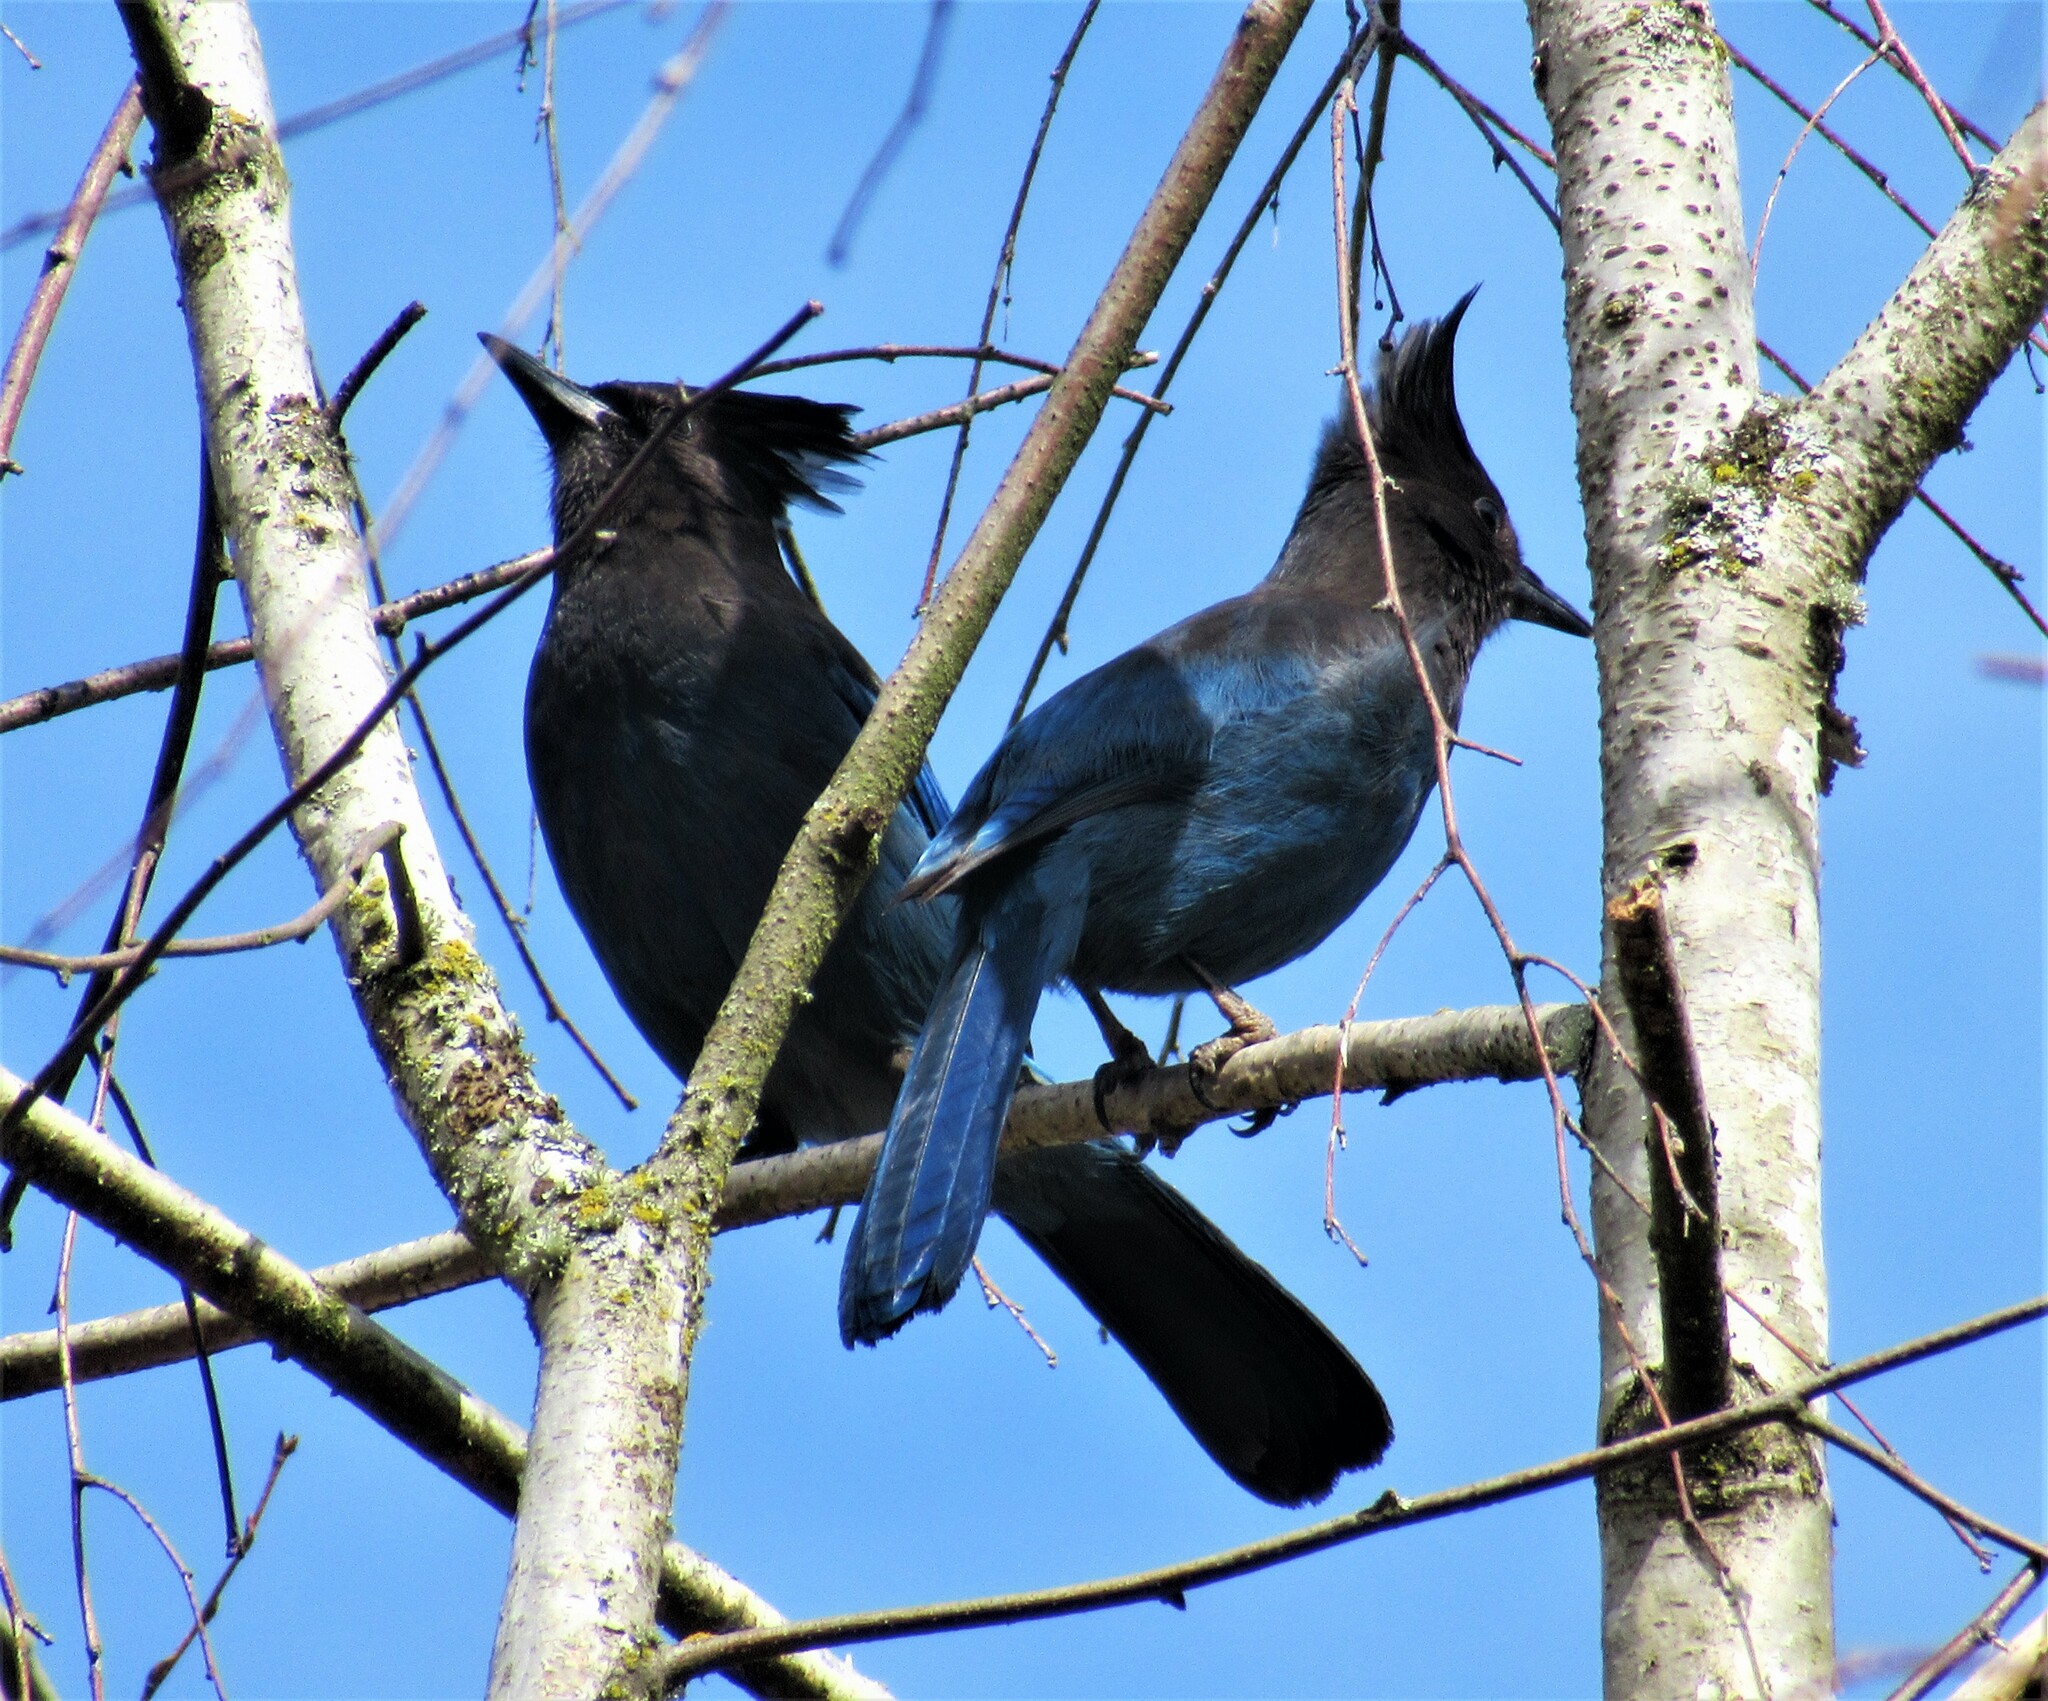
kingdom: Animalia
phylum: Chordata
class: Aves
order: Passeriformes
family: Corvidae
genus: Cyanocitta
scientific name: Cyanocitta stelleri
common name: Steller's jay
